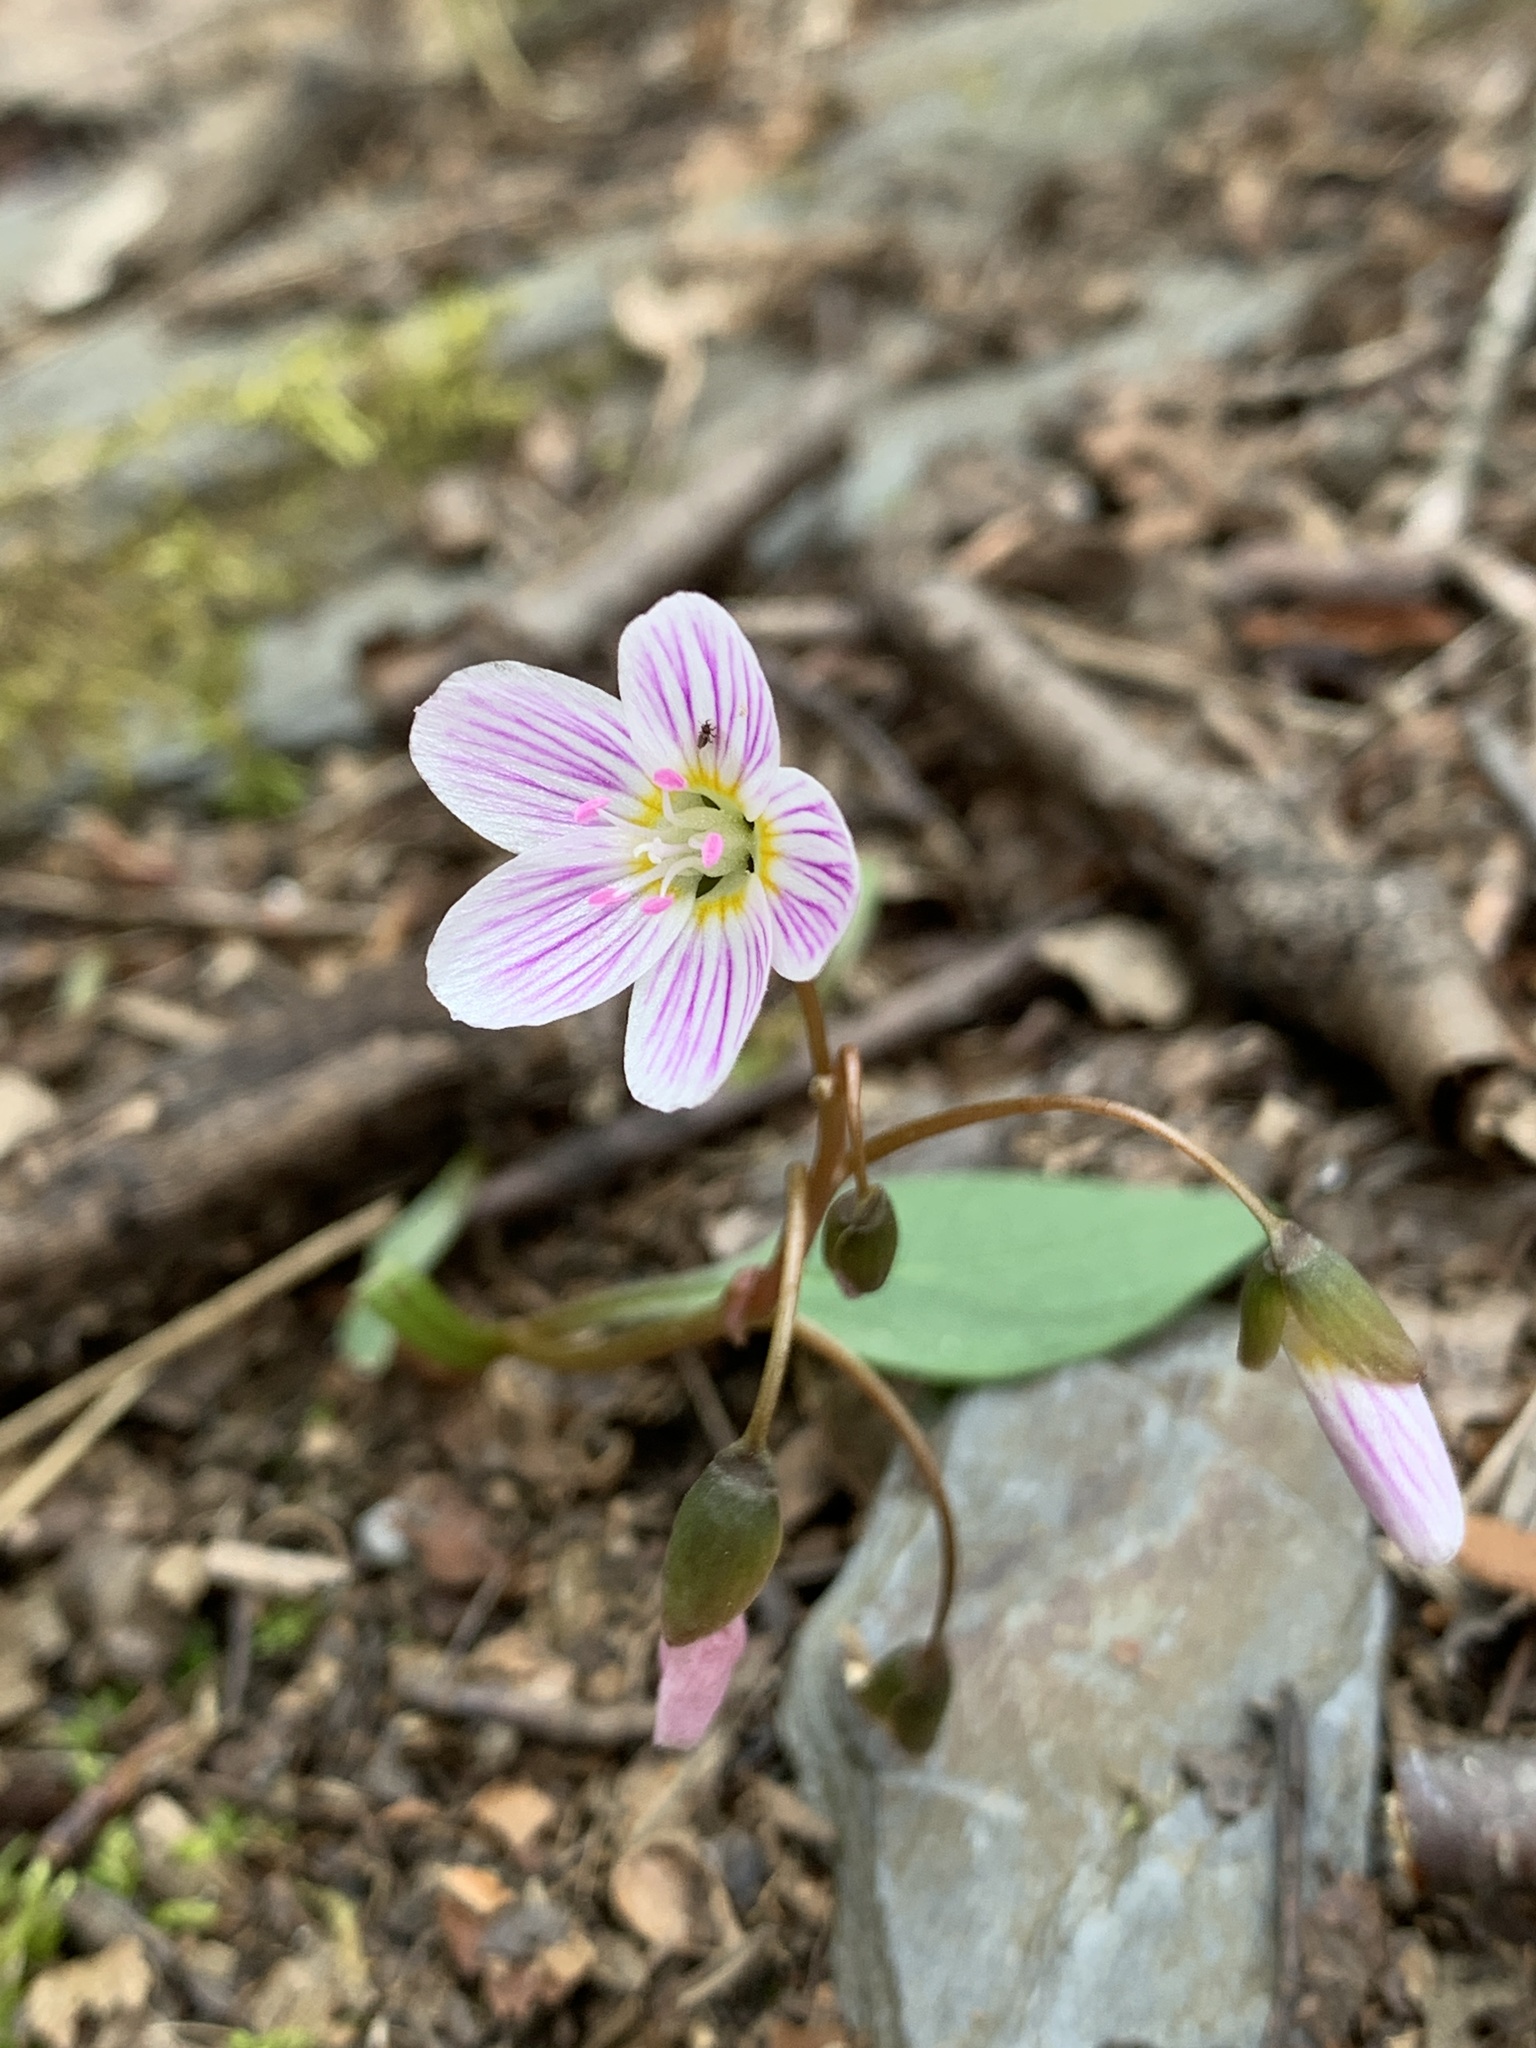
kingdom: Plantae
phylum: Tracheophyta
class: Magnoliopsida
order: Caryophyllales
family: Montiaceae
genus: Claytonia
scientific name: Claytonia caroliniana
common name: Carolina spring beauty
